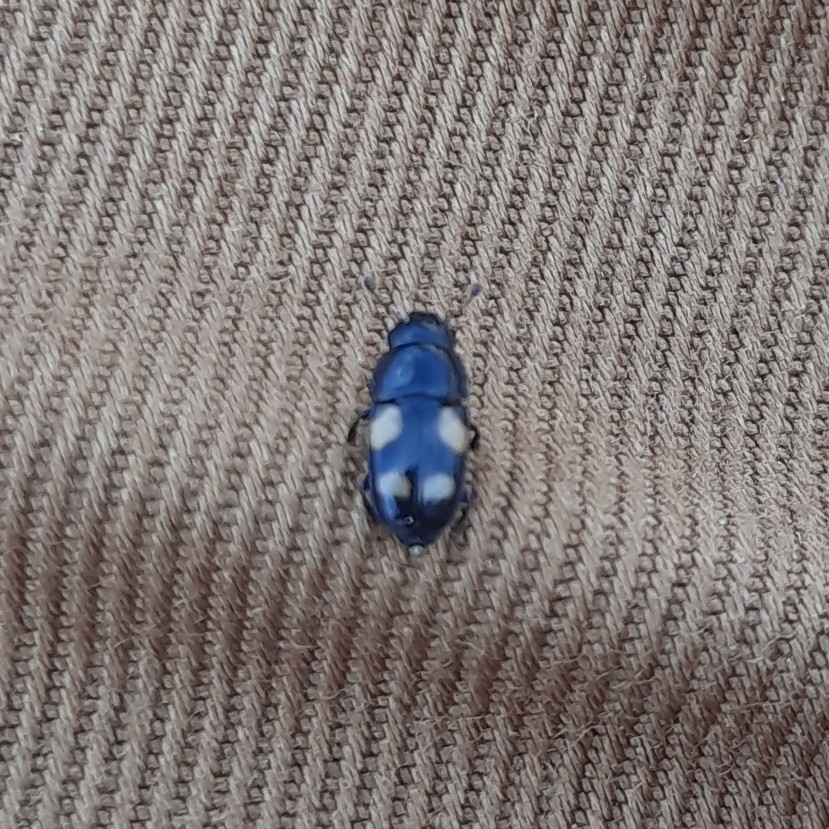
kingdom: Animalia
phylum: Arthropoda
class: Insecta
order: Coleoptera
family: Nitidulidae
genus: Glischrochilus
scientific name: Glischrochilus quadrisignatus
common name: Picnic beetle
